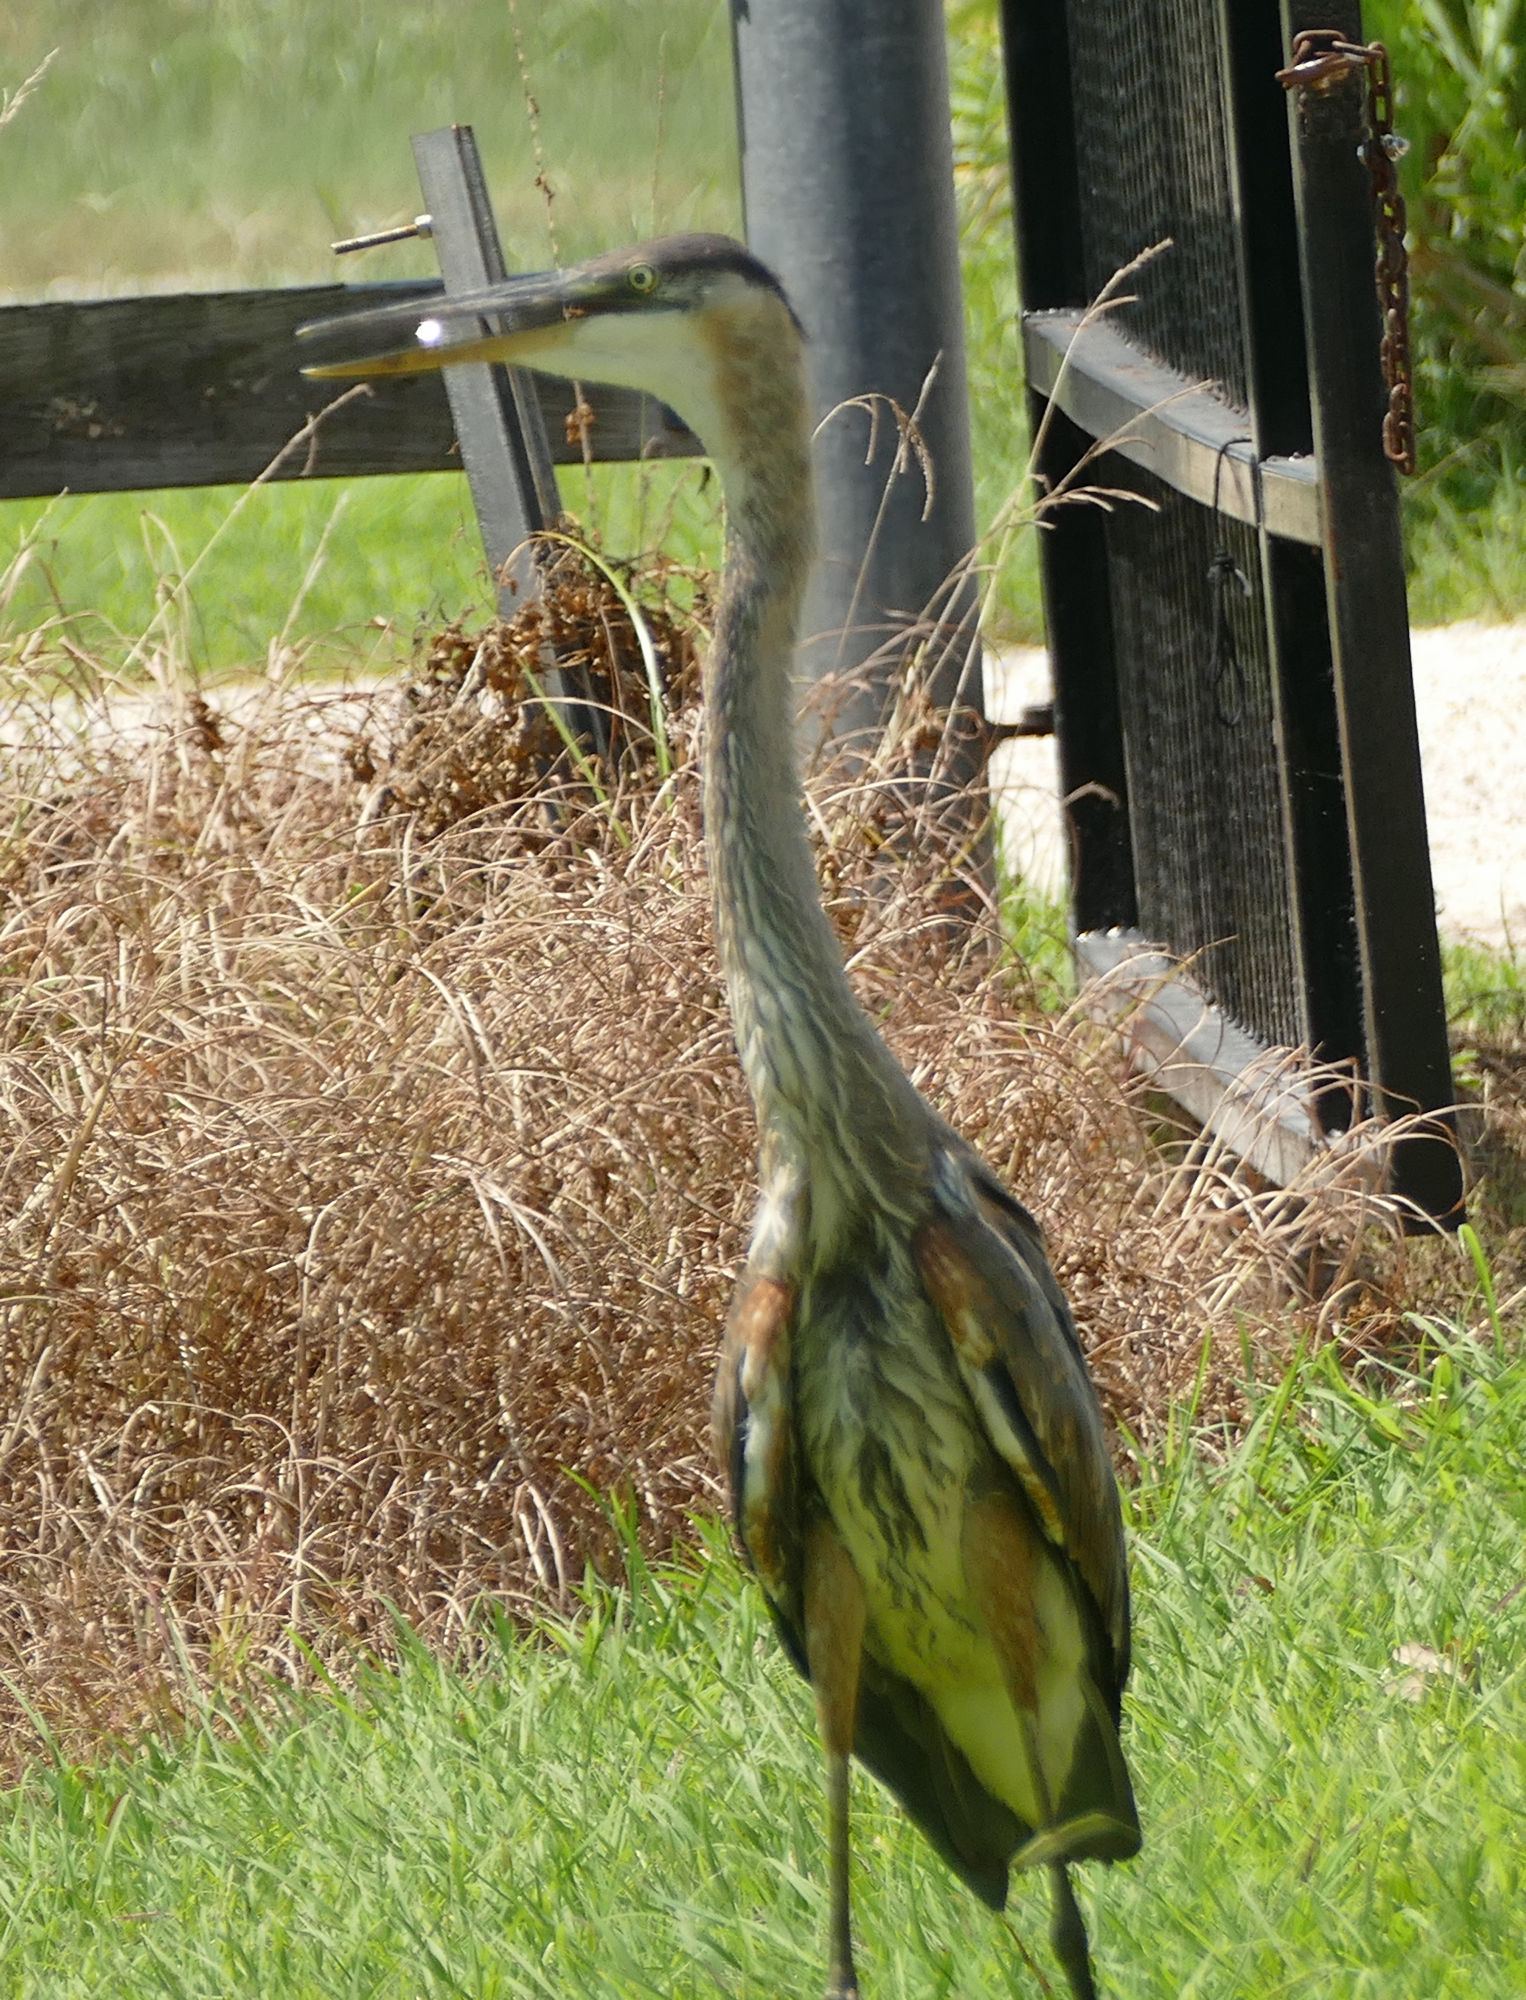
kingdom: Animalia
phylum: Chordata
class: Aves
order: Pelecaniformes
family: Ardeidae
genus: Ardea
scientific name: Ardea herodias
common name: Great blue heron
